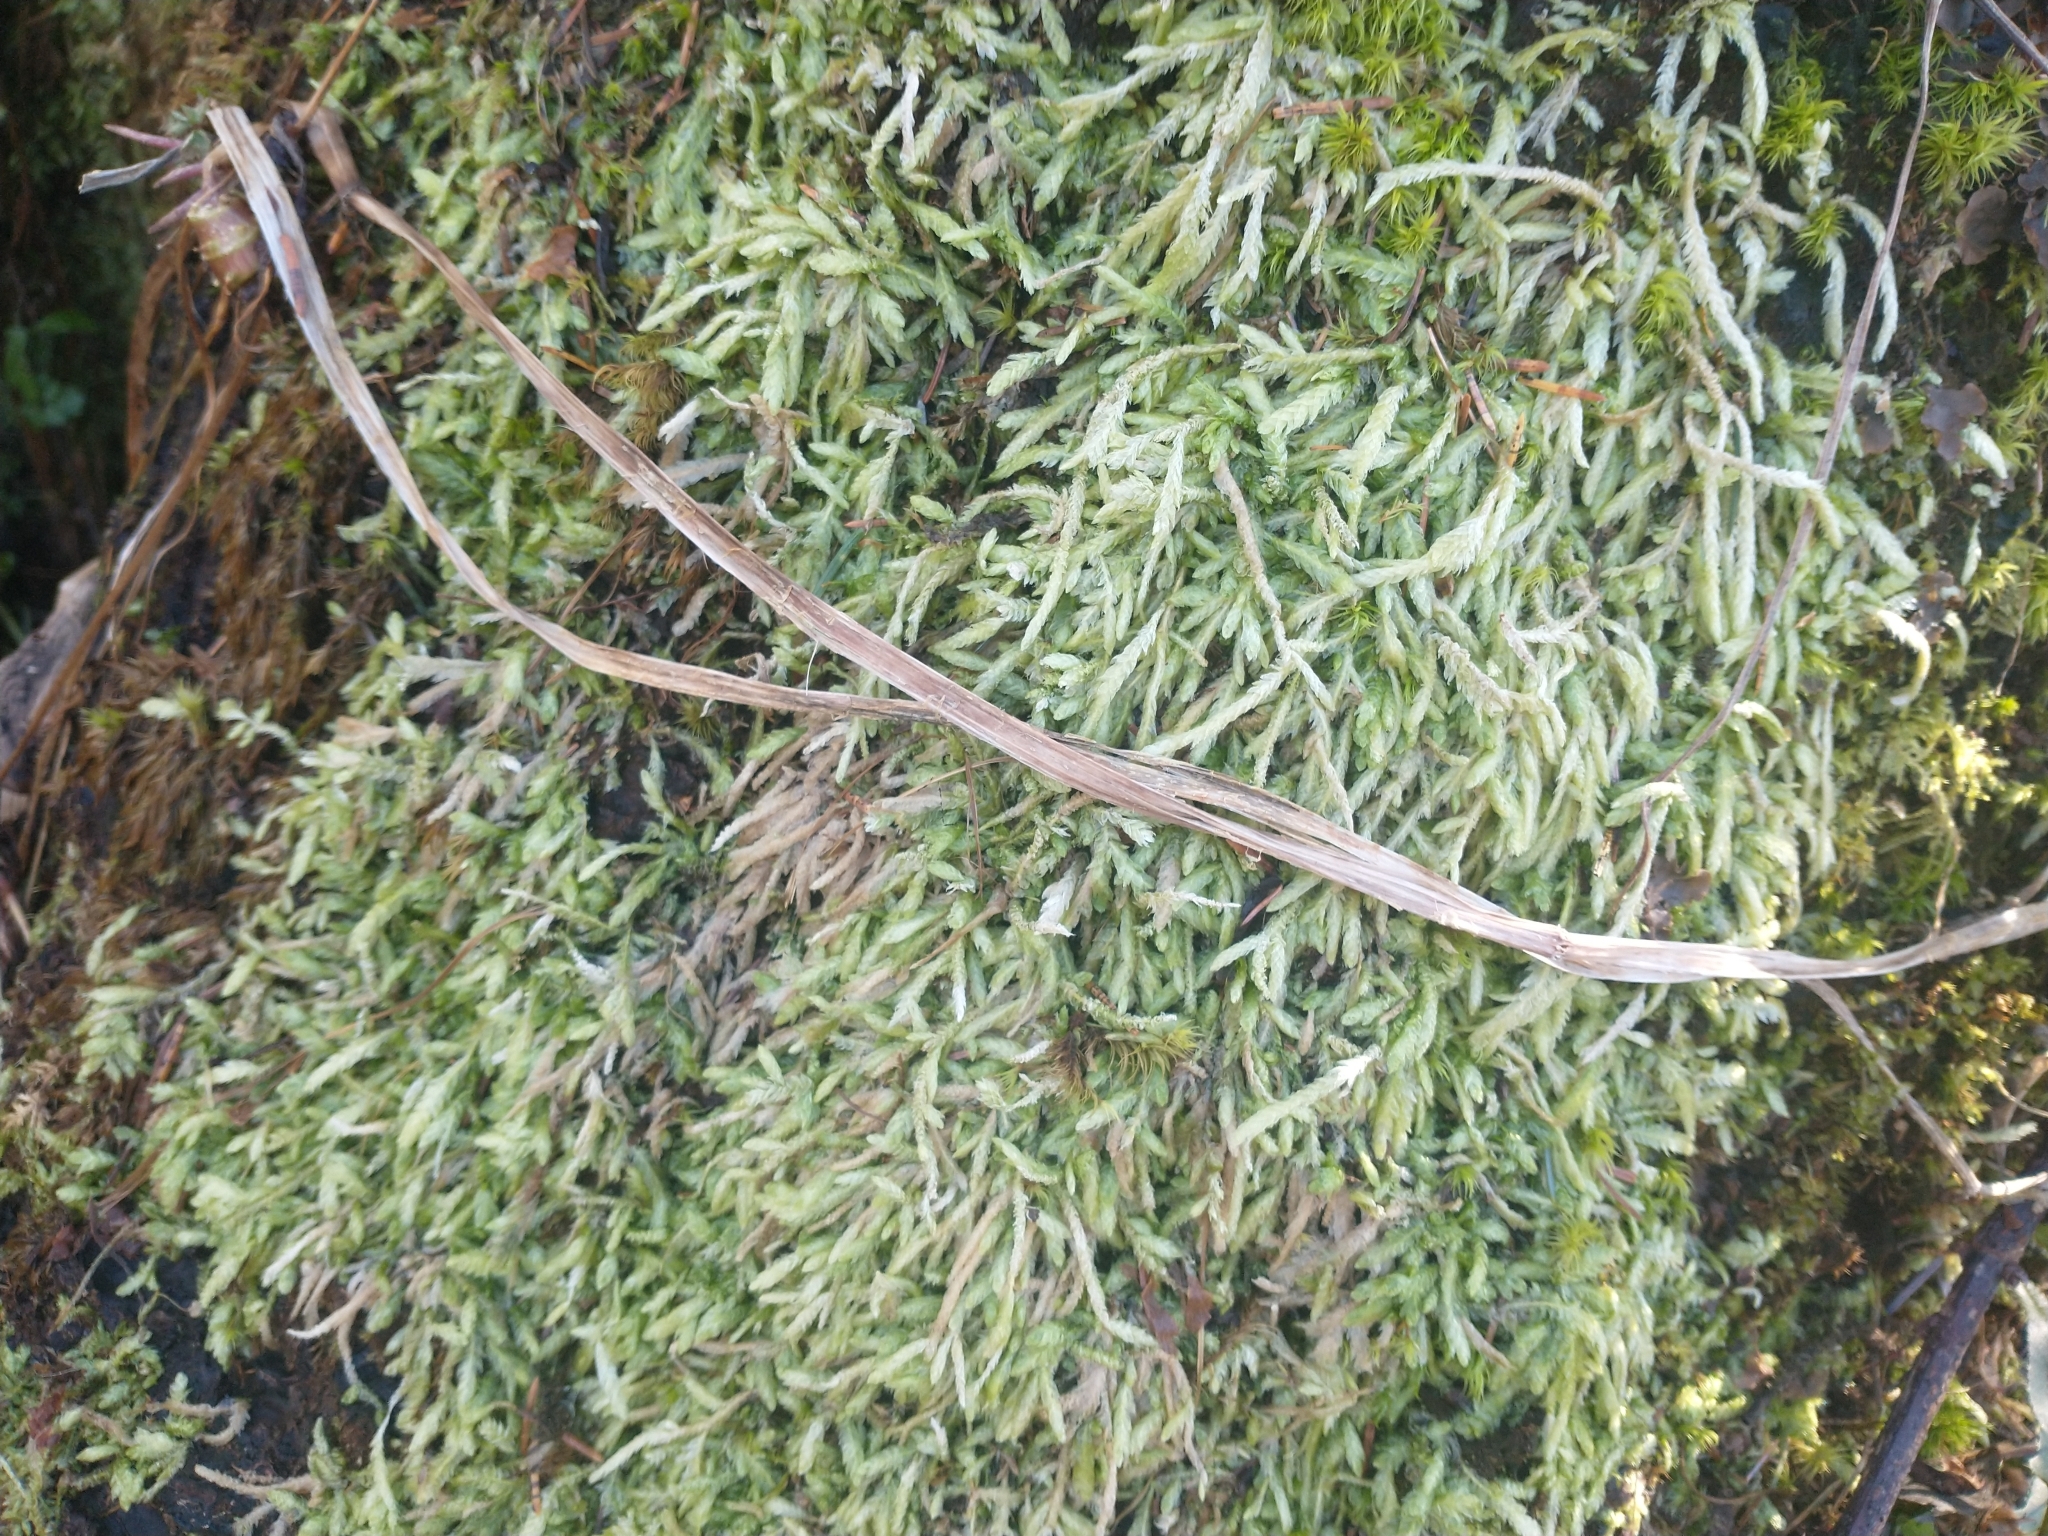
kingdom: Plantae
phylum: Bryophyta
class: Bryopsida
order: Hypnales
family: Plagiotheciaceae
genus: Plagiothecium
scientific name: Plagiothecium undulatum
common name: Waved silk-moss
